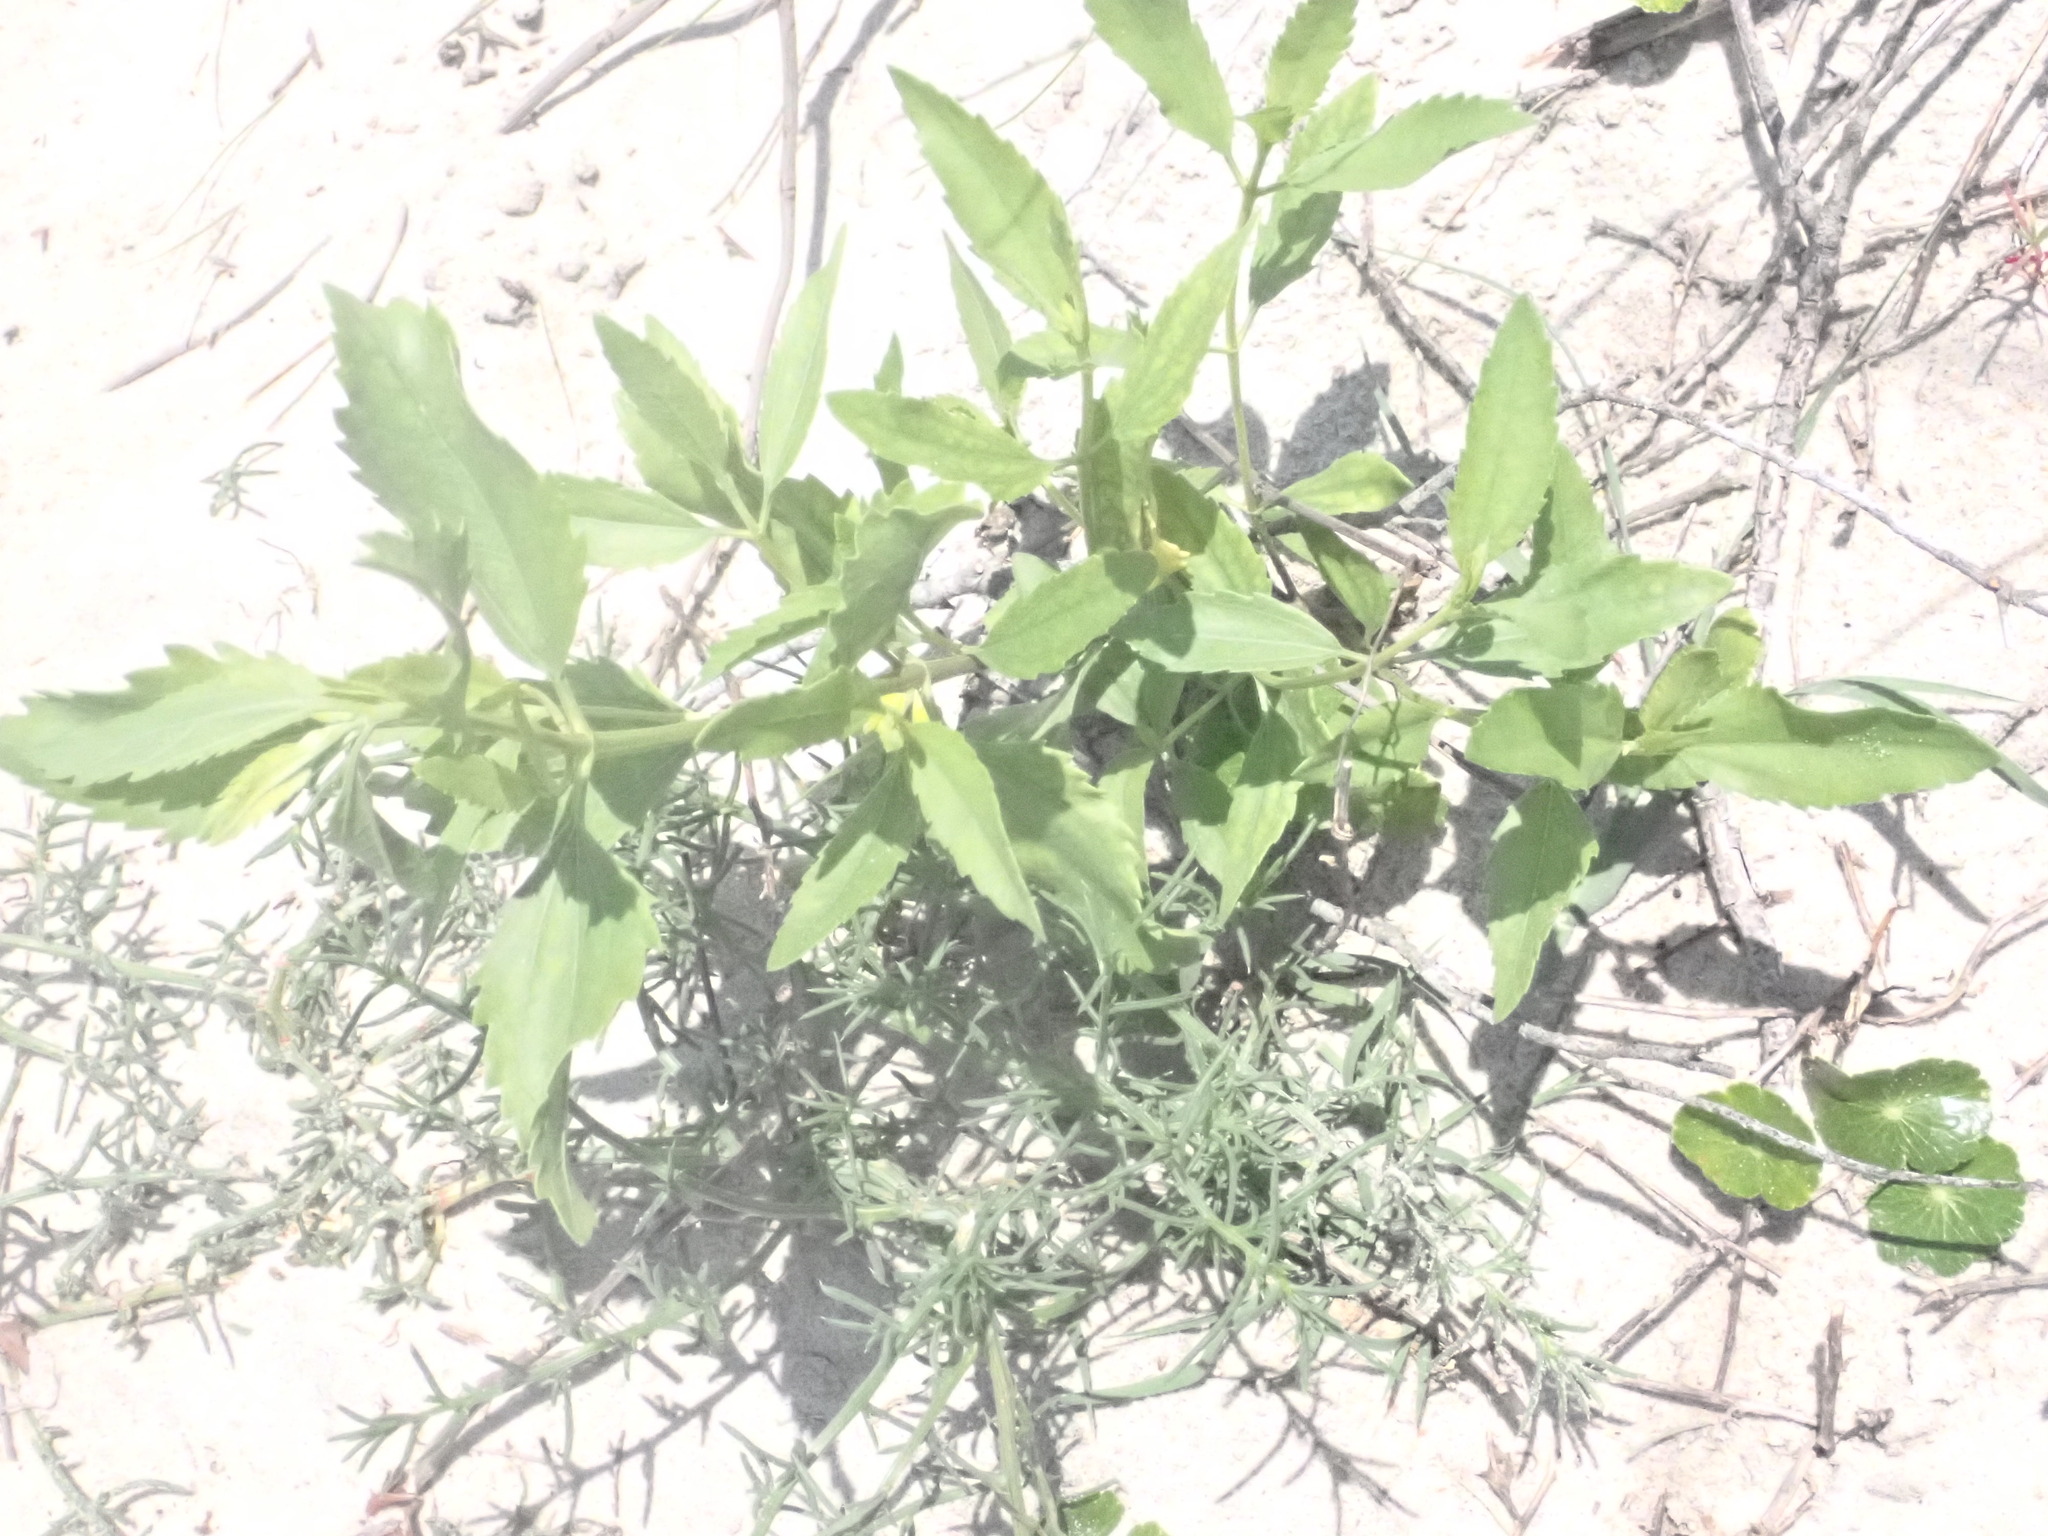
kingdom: Plantae
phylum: Tracheophyta
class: Magnoliopsida
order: Asterales
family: Asteraceae
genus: Iva
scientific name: Iva frutescens
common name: Big-leaved marsh-elder
